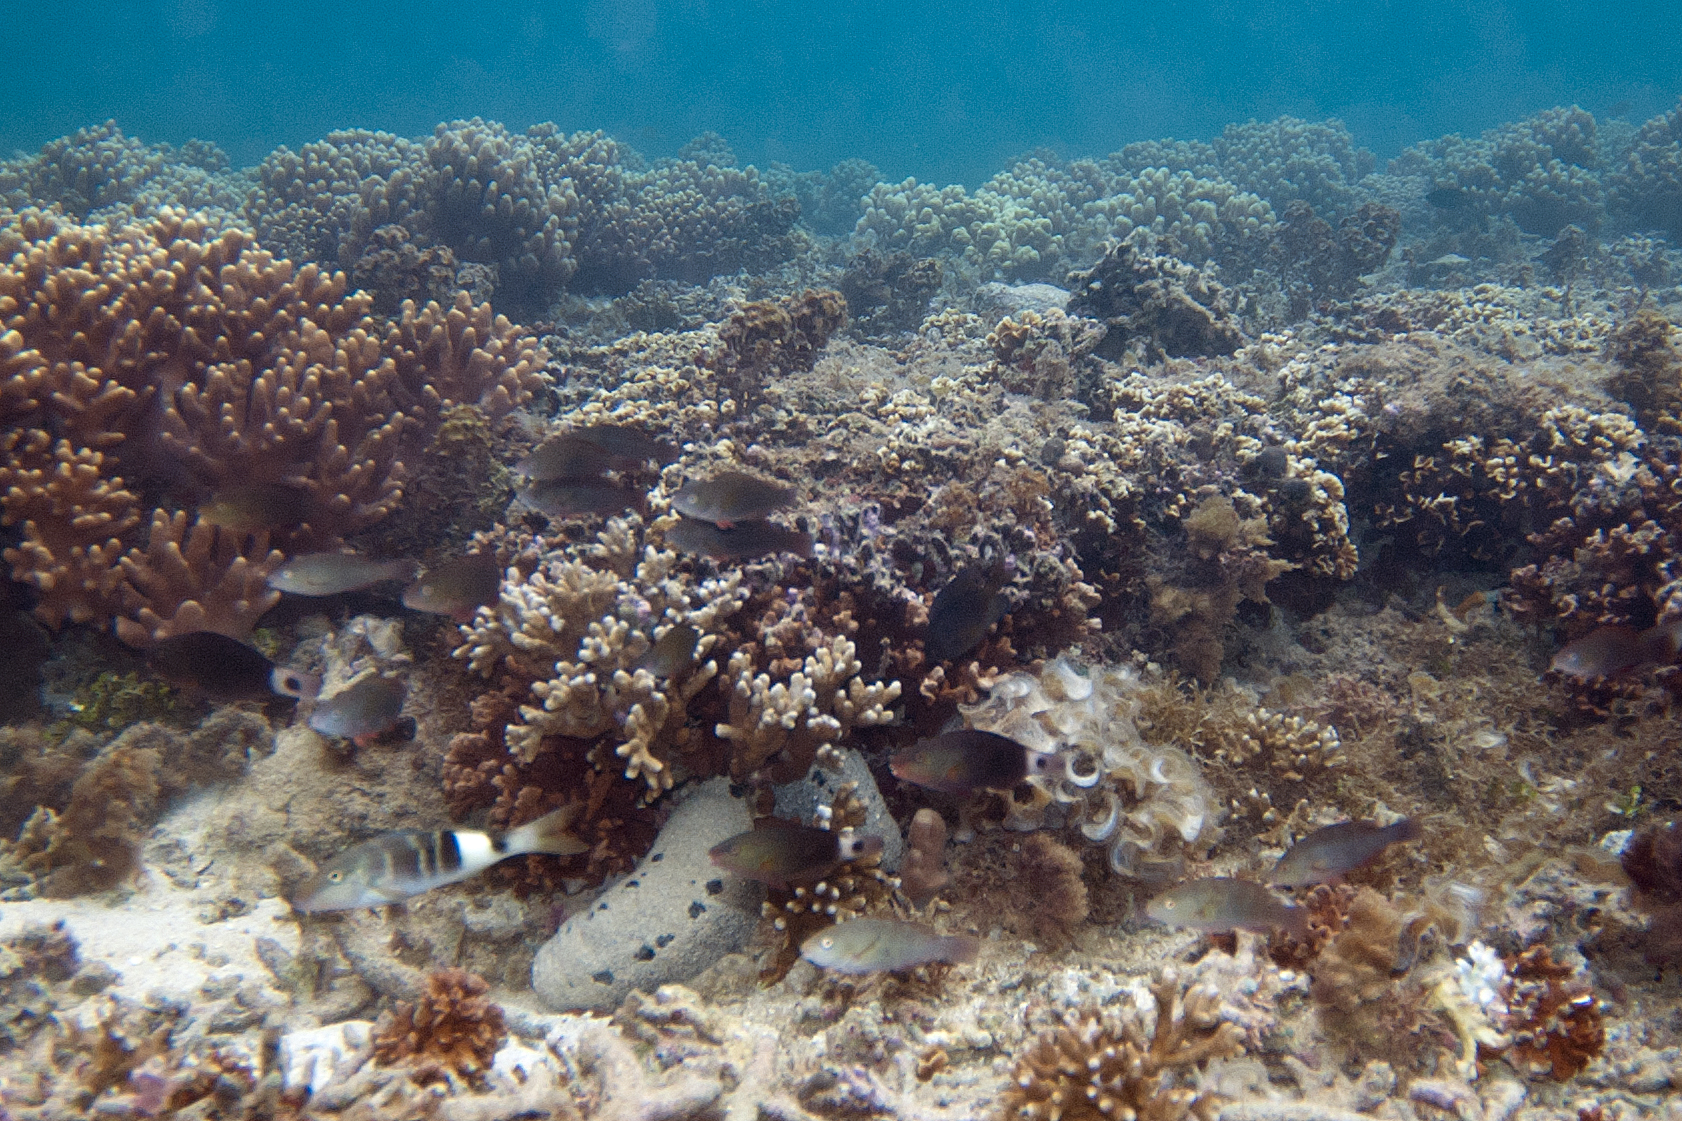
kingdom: Animalia
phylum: Chordata
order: Perciformes
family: Mullidae
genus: Parupeneus
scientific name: Parupeneus multifasciatus
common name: Manybar goatfish
